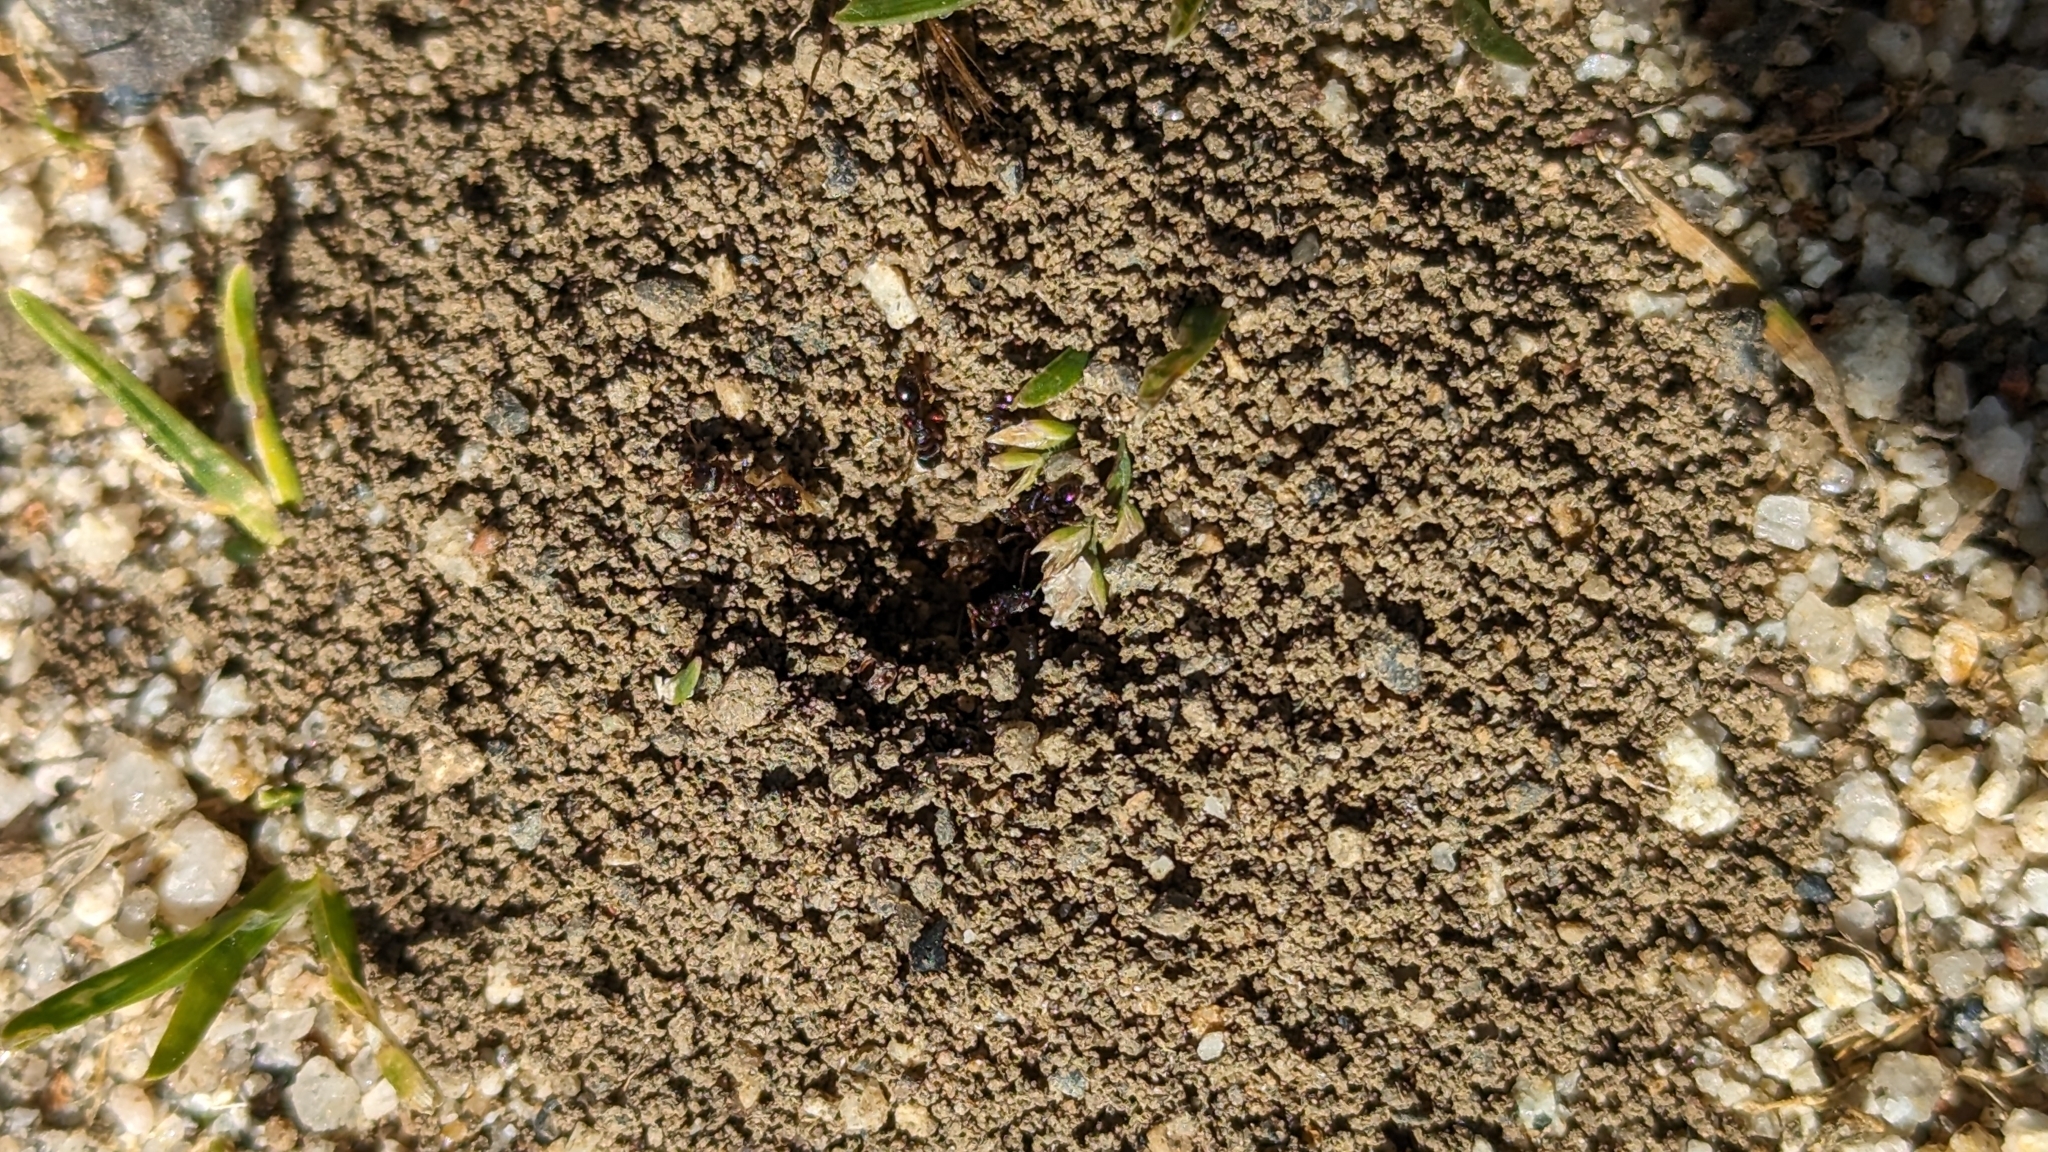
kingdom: Animalia
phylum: Arthropoda
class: Insecta
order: Hymenoptera
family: Formicidae
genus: Tetramorium
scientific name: Tetramorium immigrans
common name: Pavement ant
